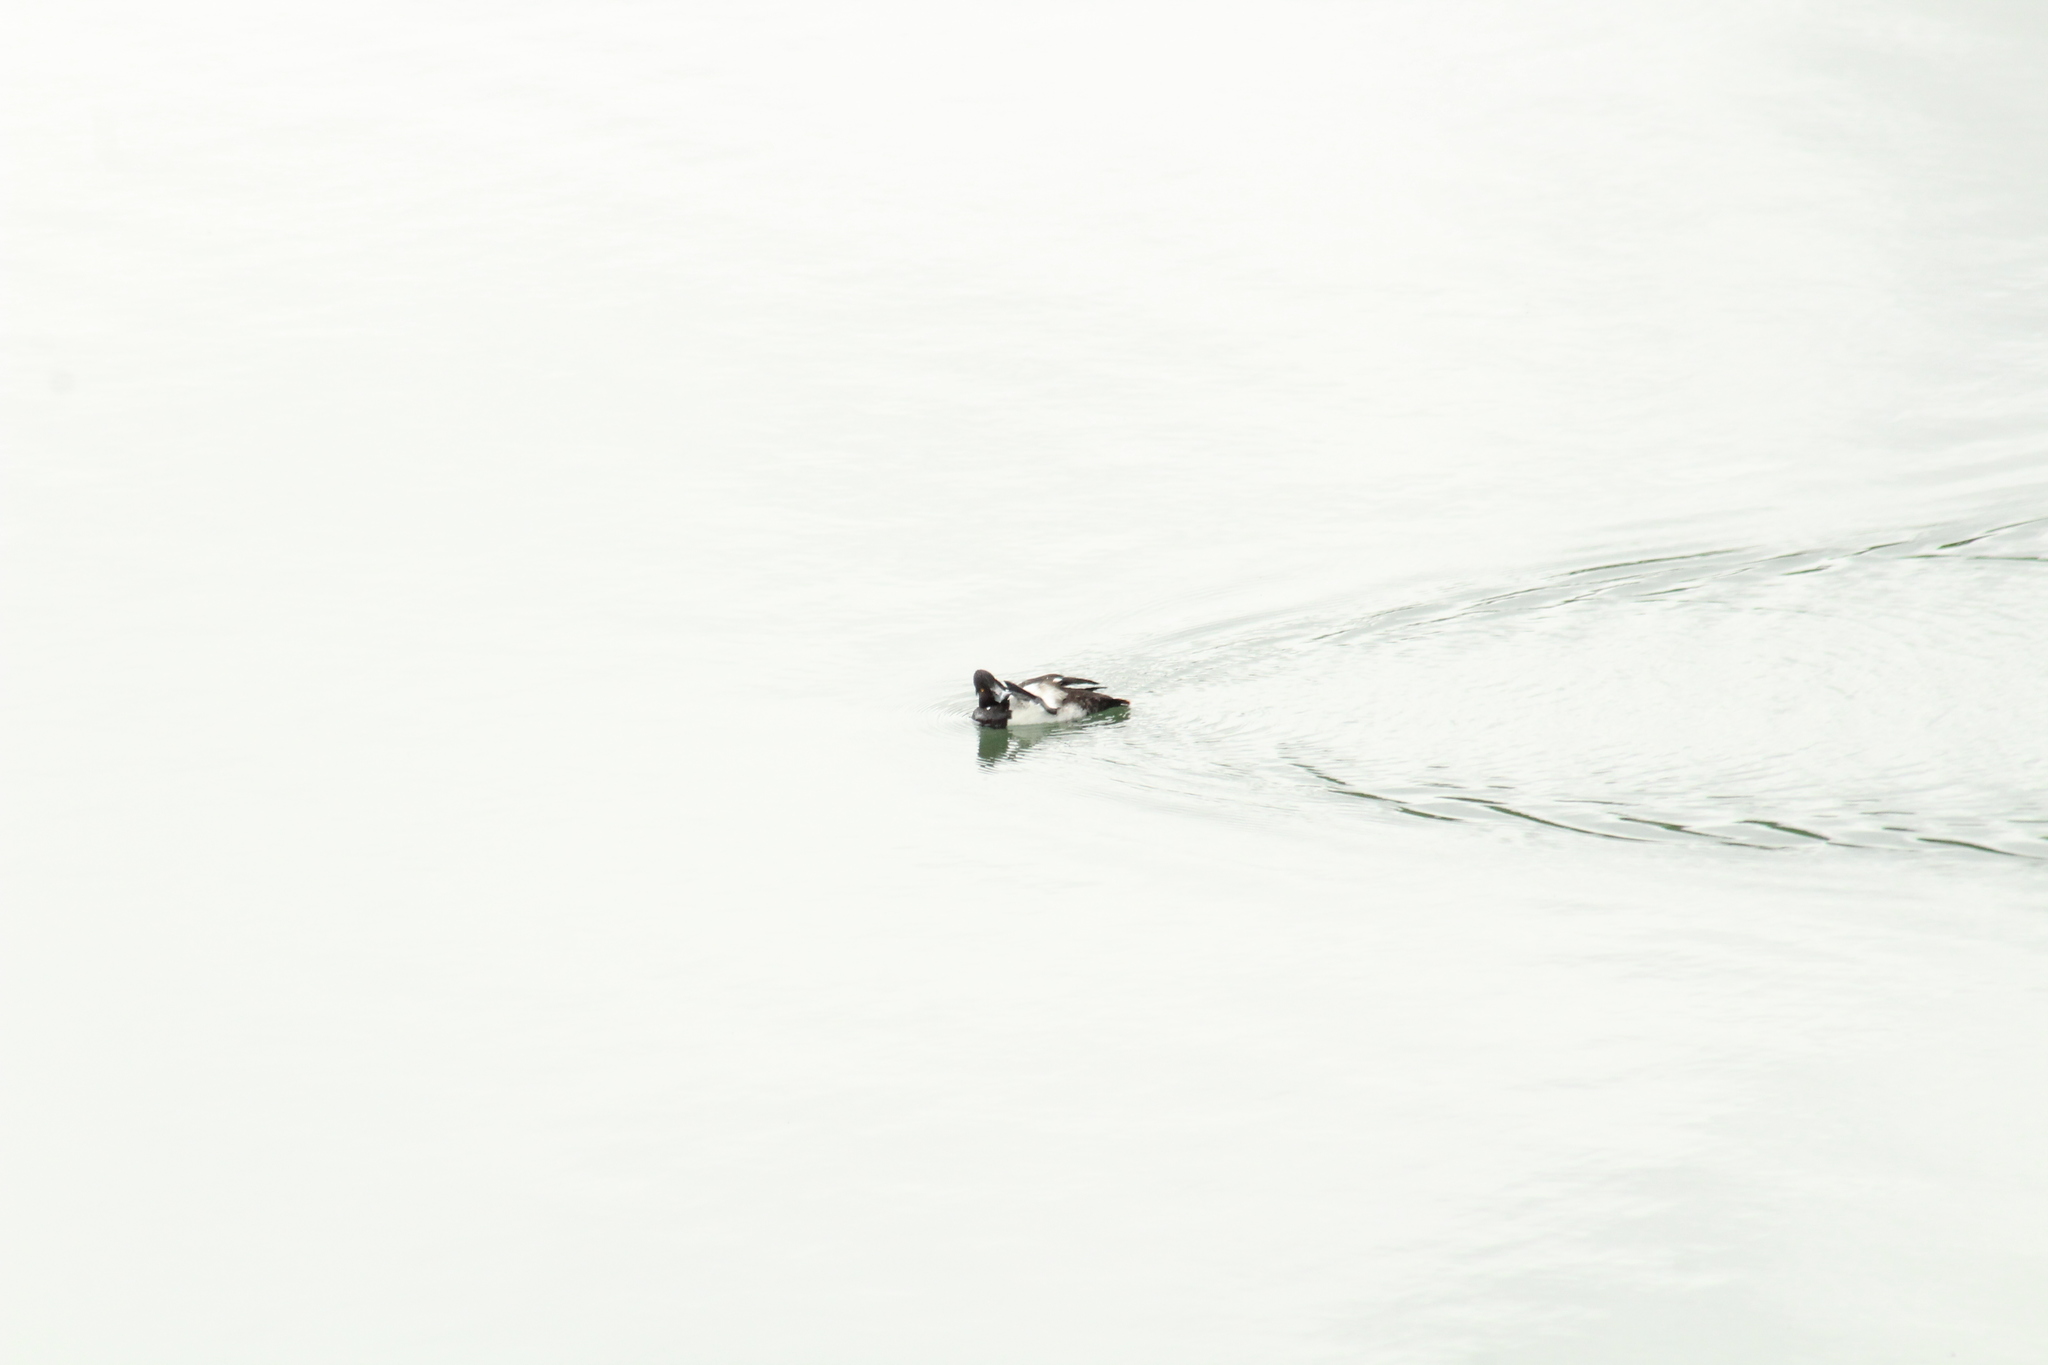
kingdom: Animalia
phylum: Chordata
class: Aves
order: Anseriformes
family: Anatidae
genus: Aythya
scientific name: Aythya fuligula
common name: Tufted duck
